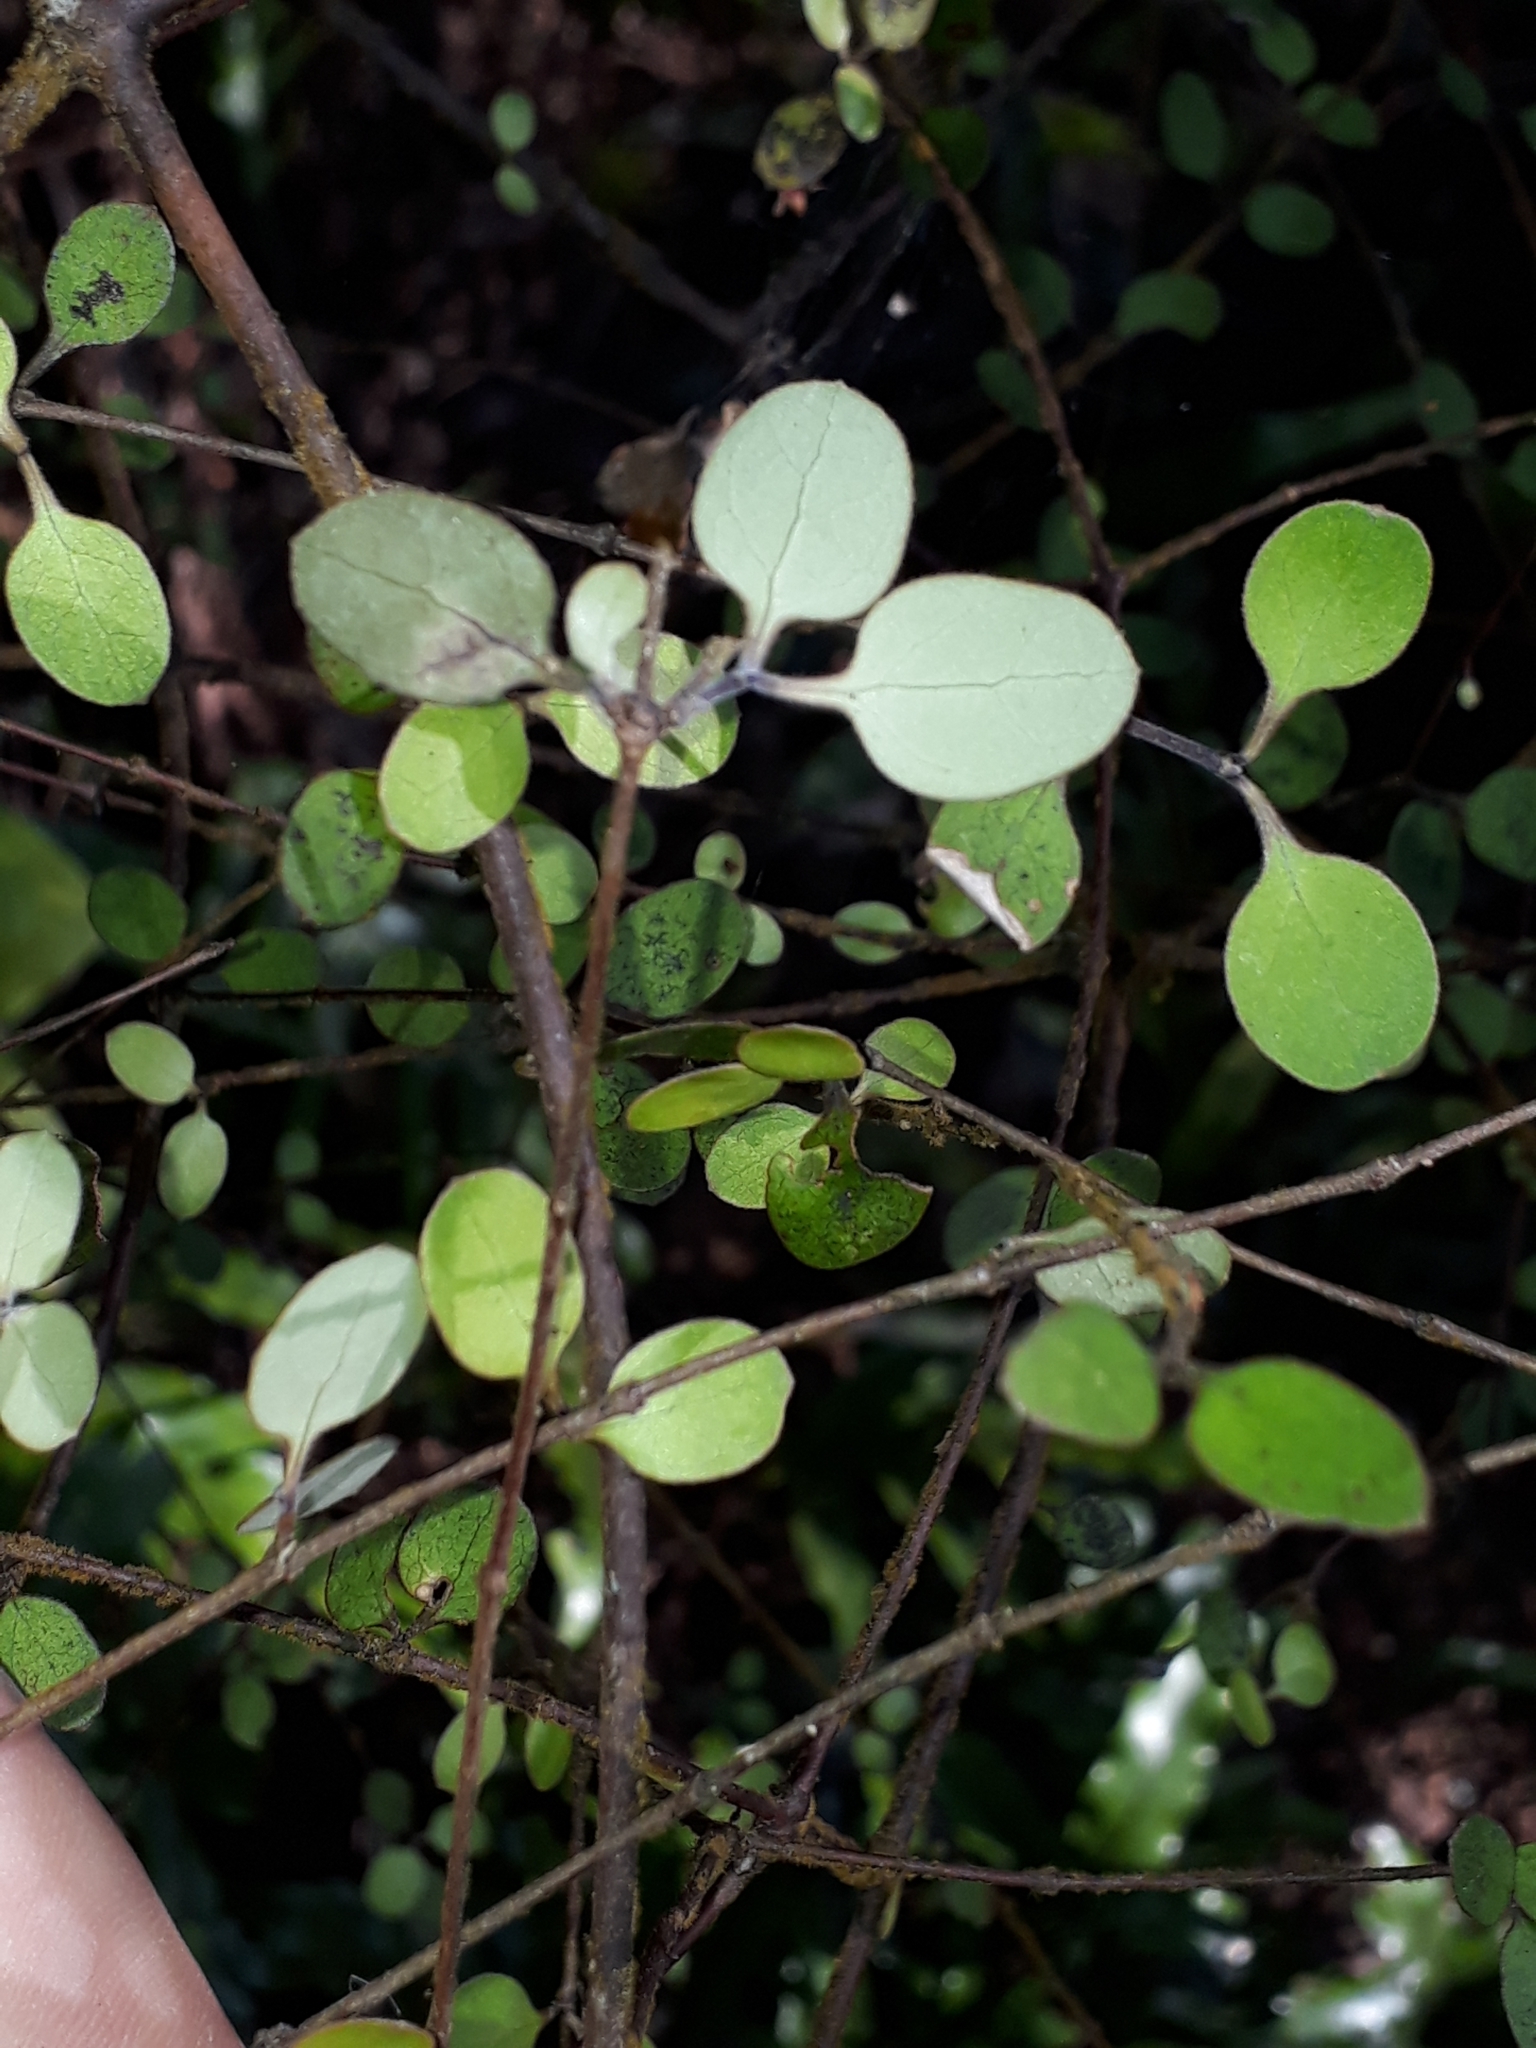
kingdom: Plantae
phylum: Tracheophyta
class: Magnoliopsida
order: Gentianales
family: Rubiaceae
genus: Coprosma
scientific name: Coprosma crassifolia
